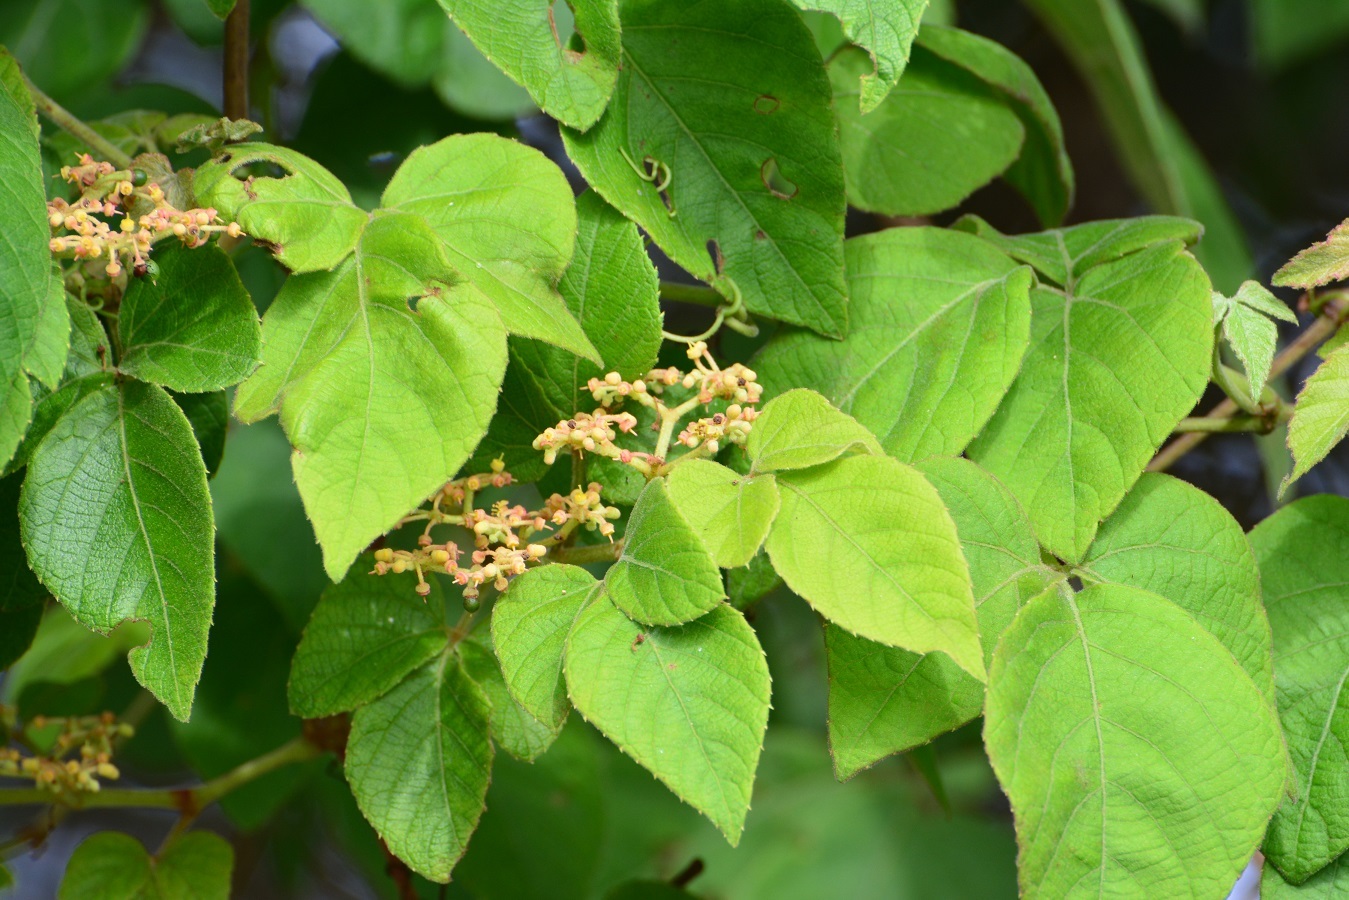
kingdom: Plantae
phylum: Tracheophyta
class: Magnoliopsida
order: Vitales
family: Vitaceae
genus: Cissus
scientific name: Cissus microcarpa
